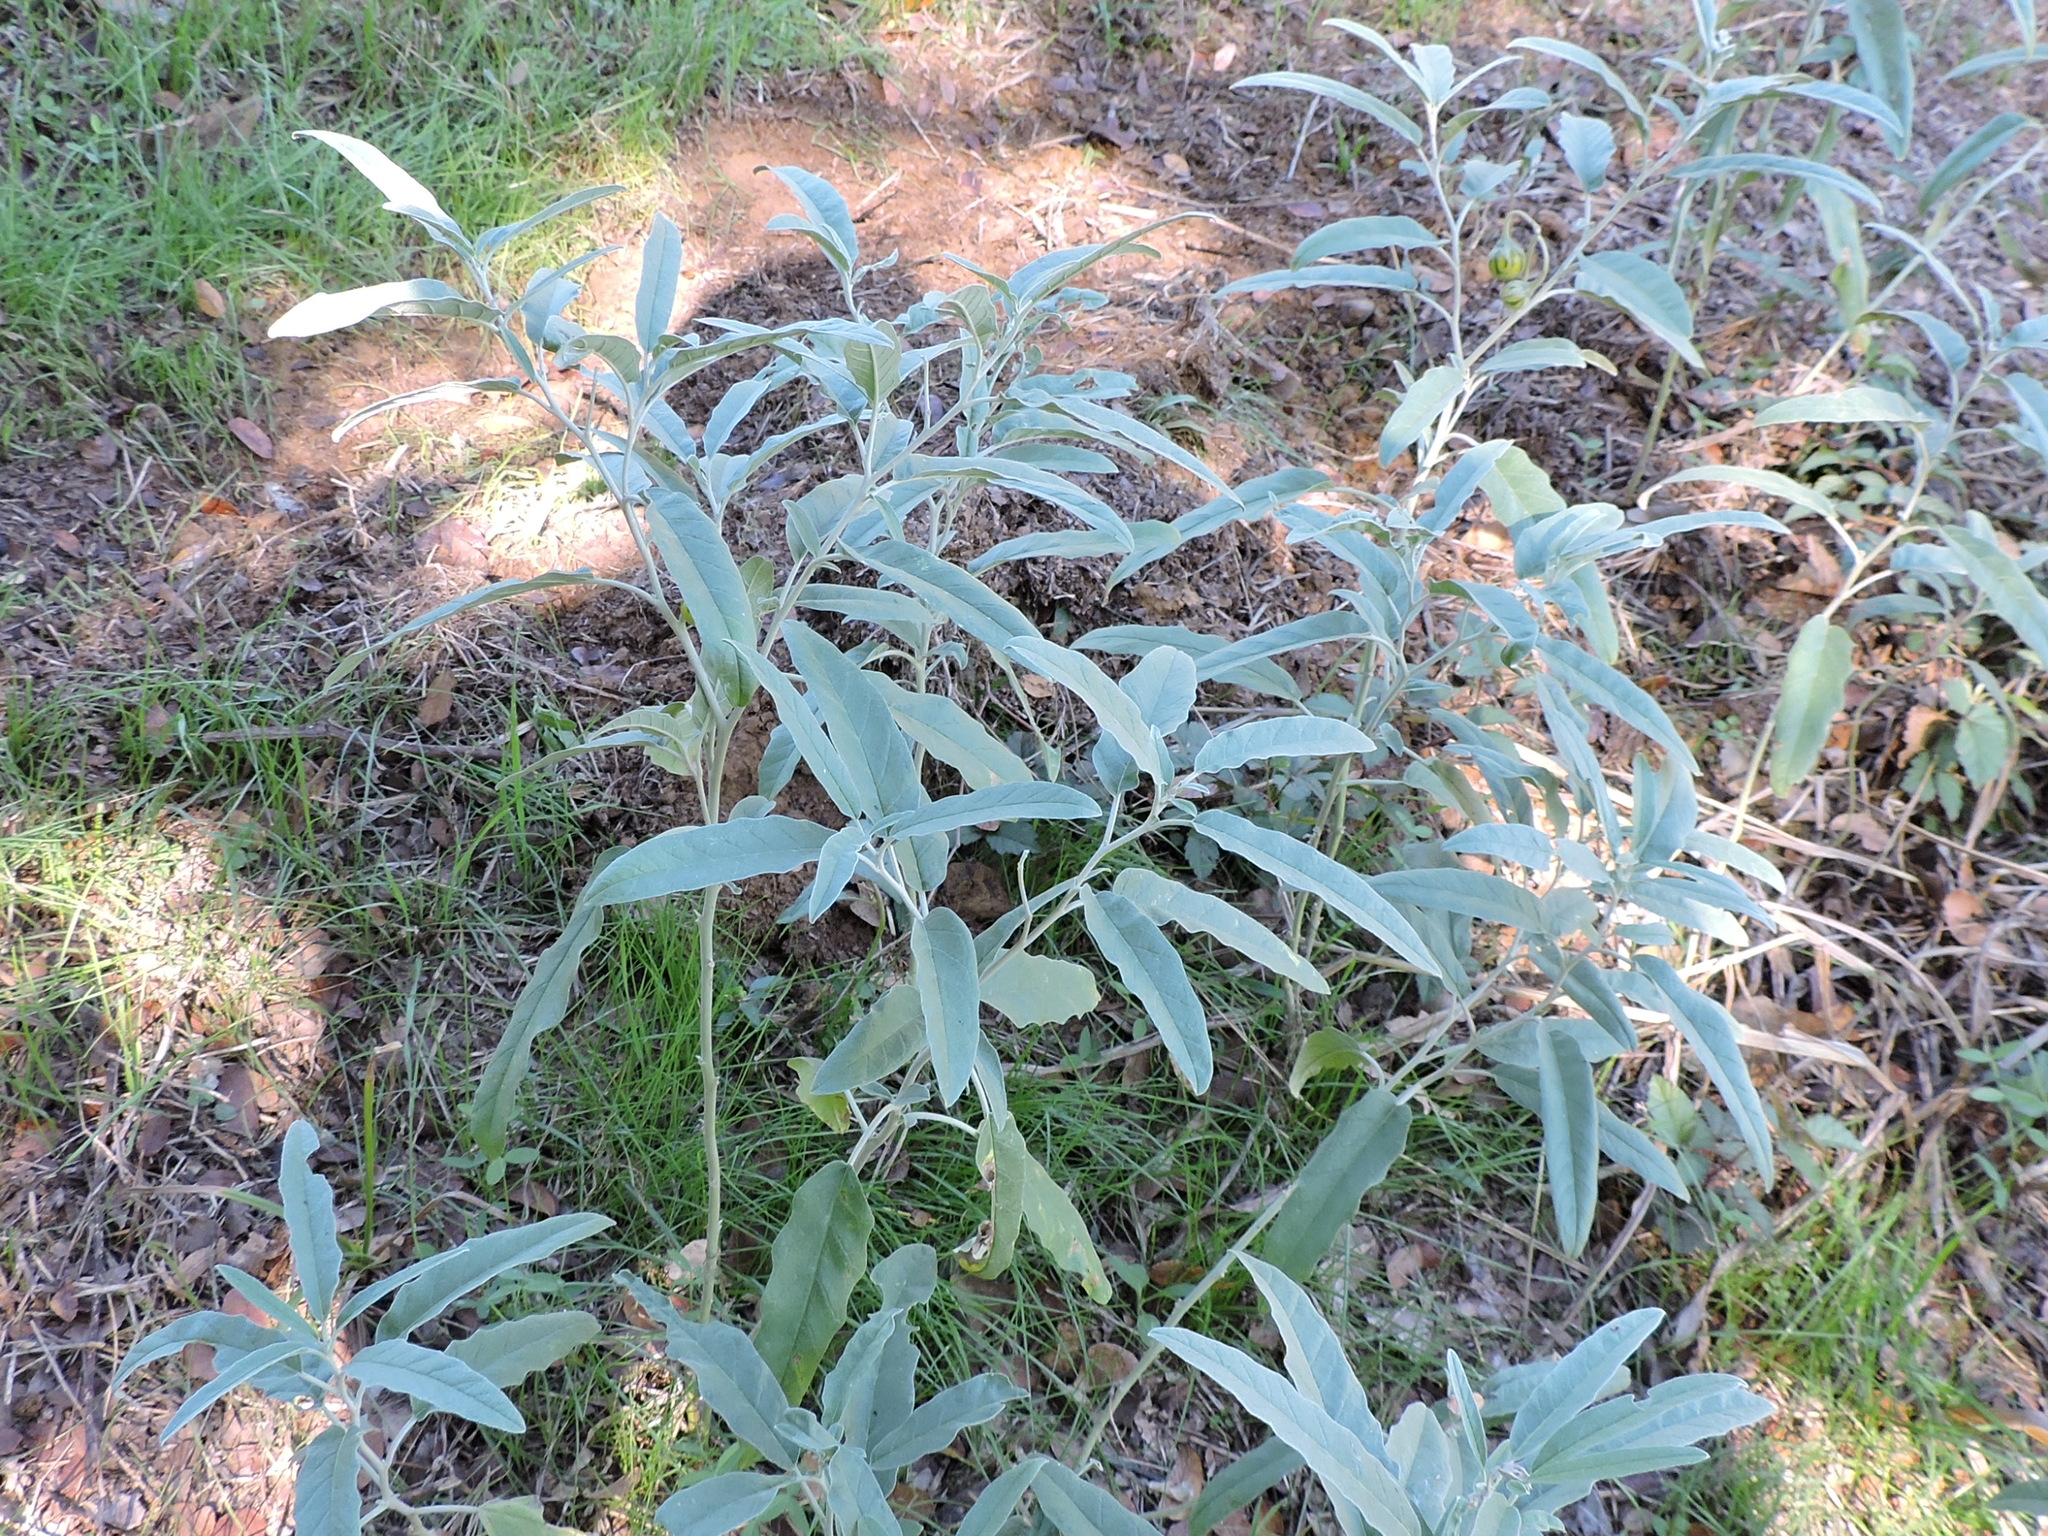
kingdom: Plantae
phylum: Tracheophyta
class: Magnoliopsida
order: Solanales
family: Solanaceae
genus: Solanum
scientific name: Solanum elaeagnifolium
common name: Silverleaf nightshade
